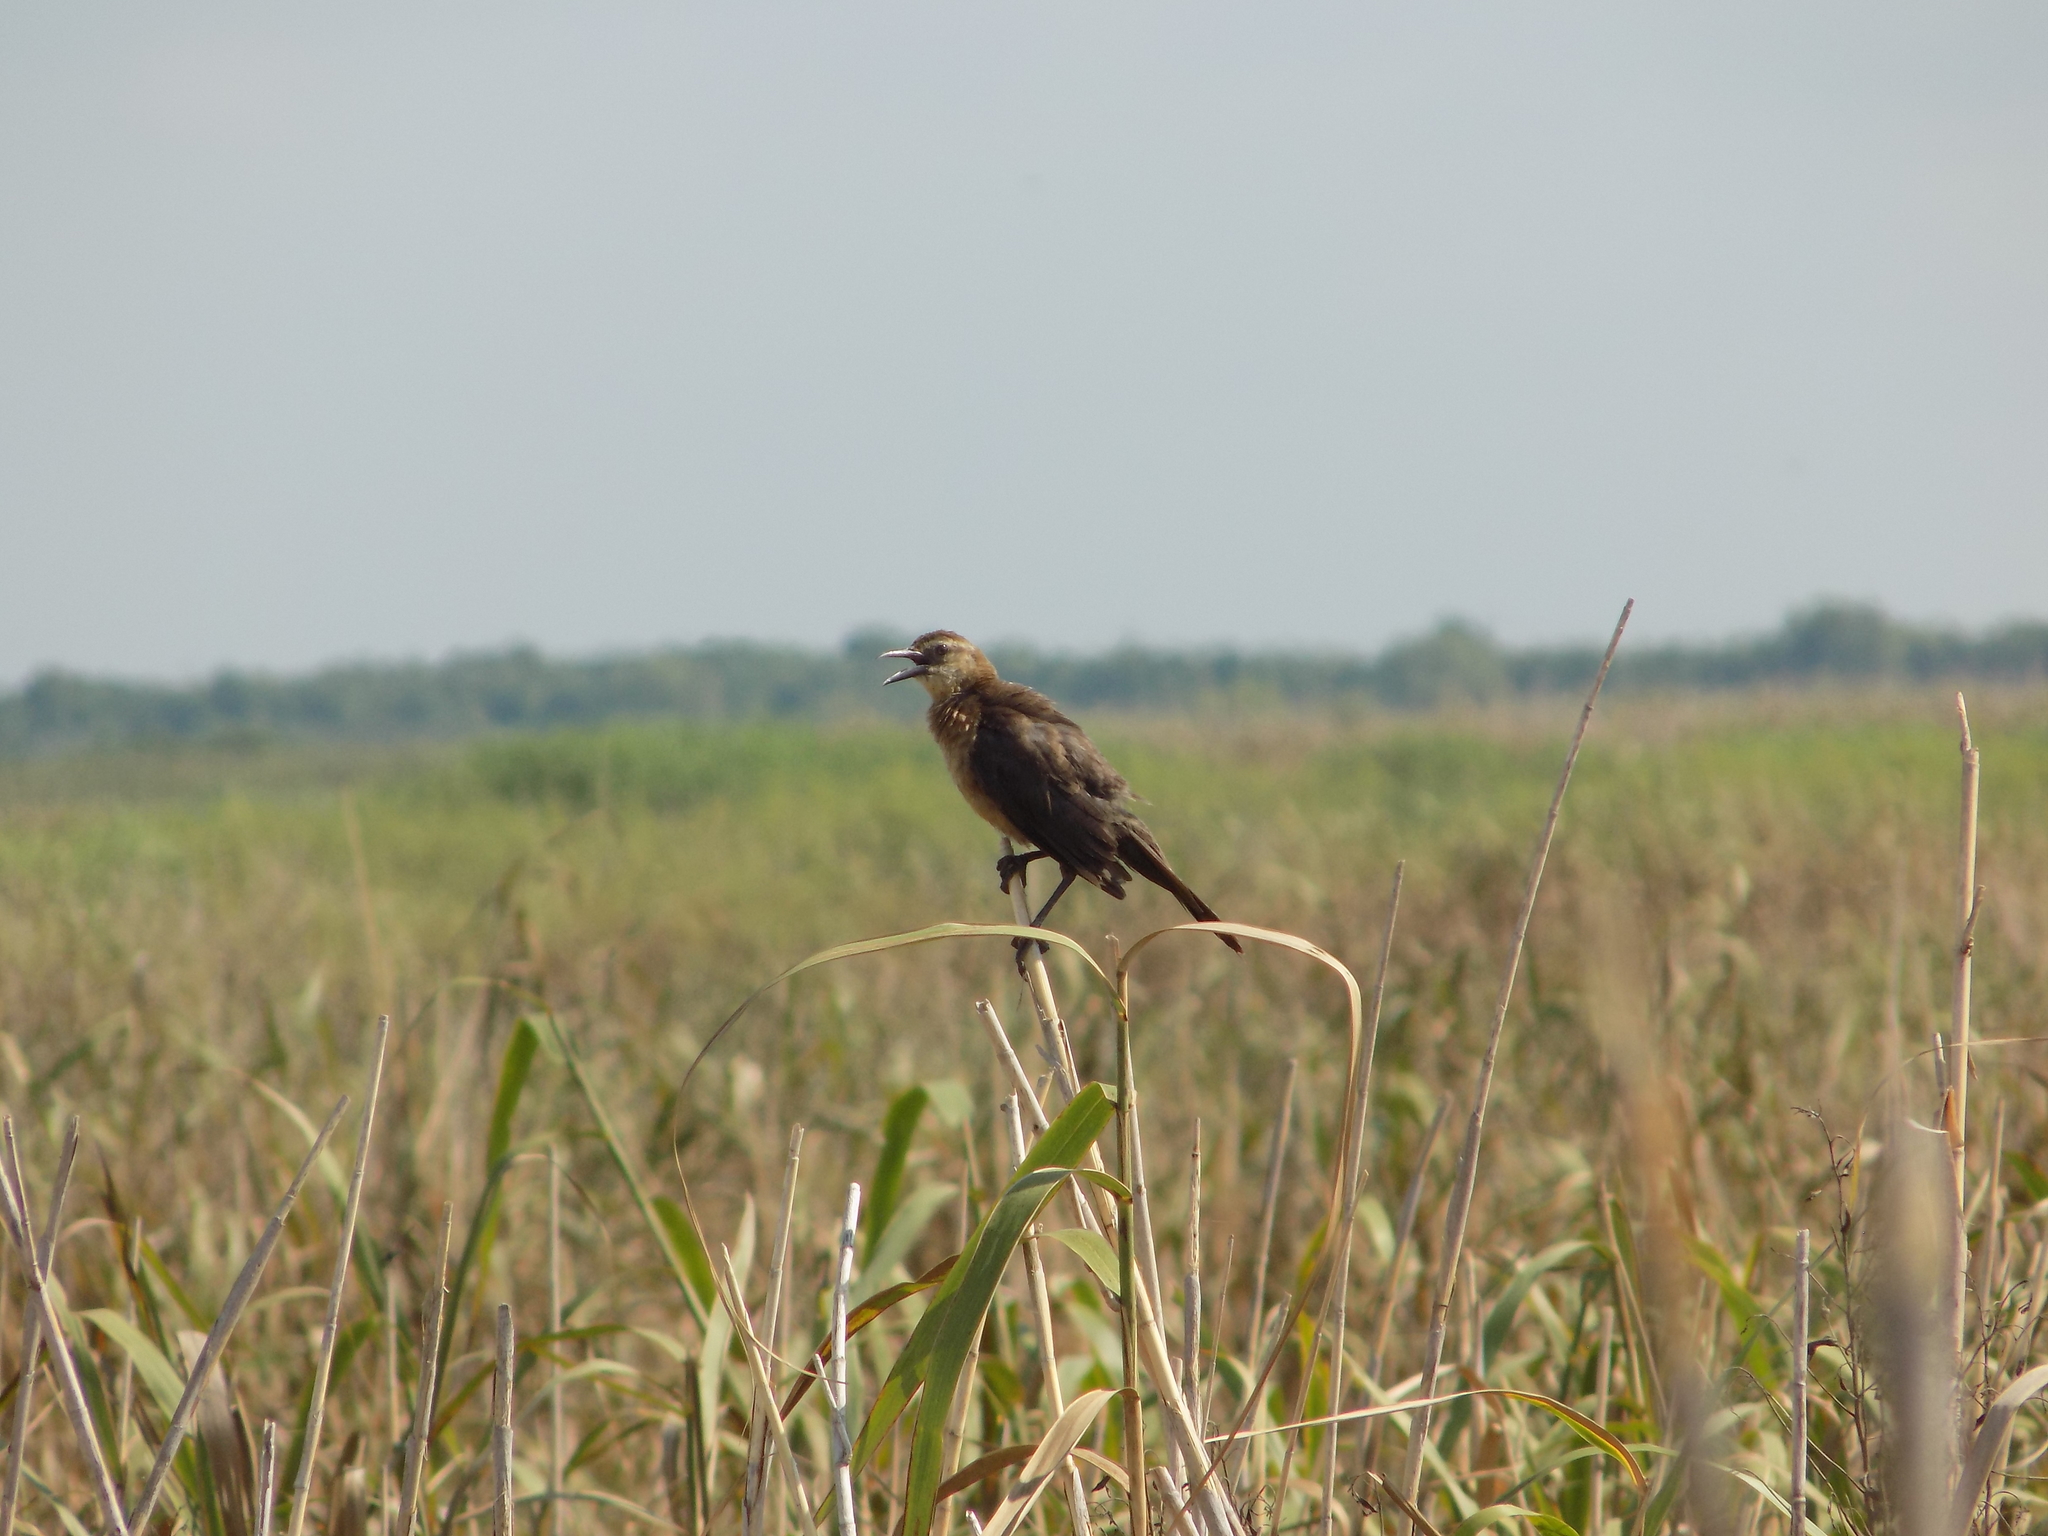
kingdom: Animalia
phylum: Chordata
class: Aves
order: Passeriformes
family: Icteridae
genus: Quiscalus
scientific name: Quiscalus major
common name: Boat-tailed grackle
